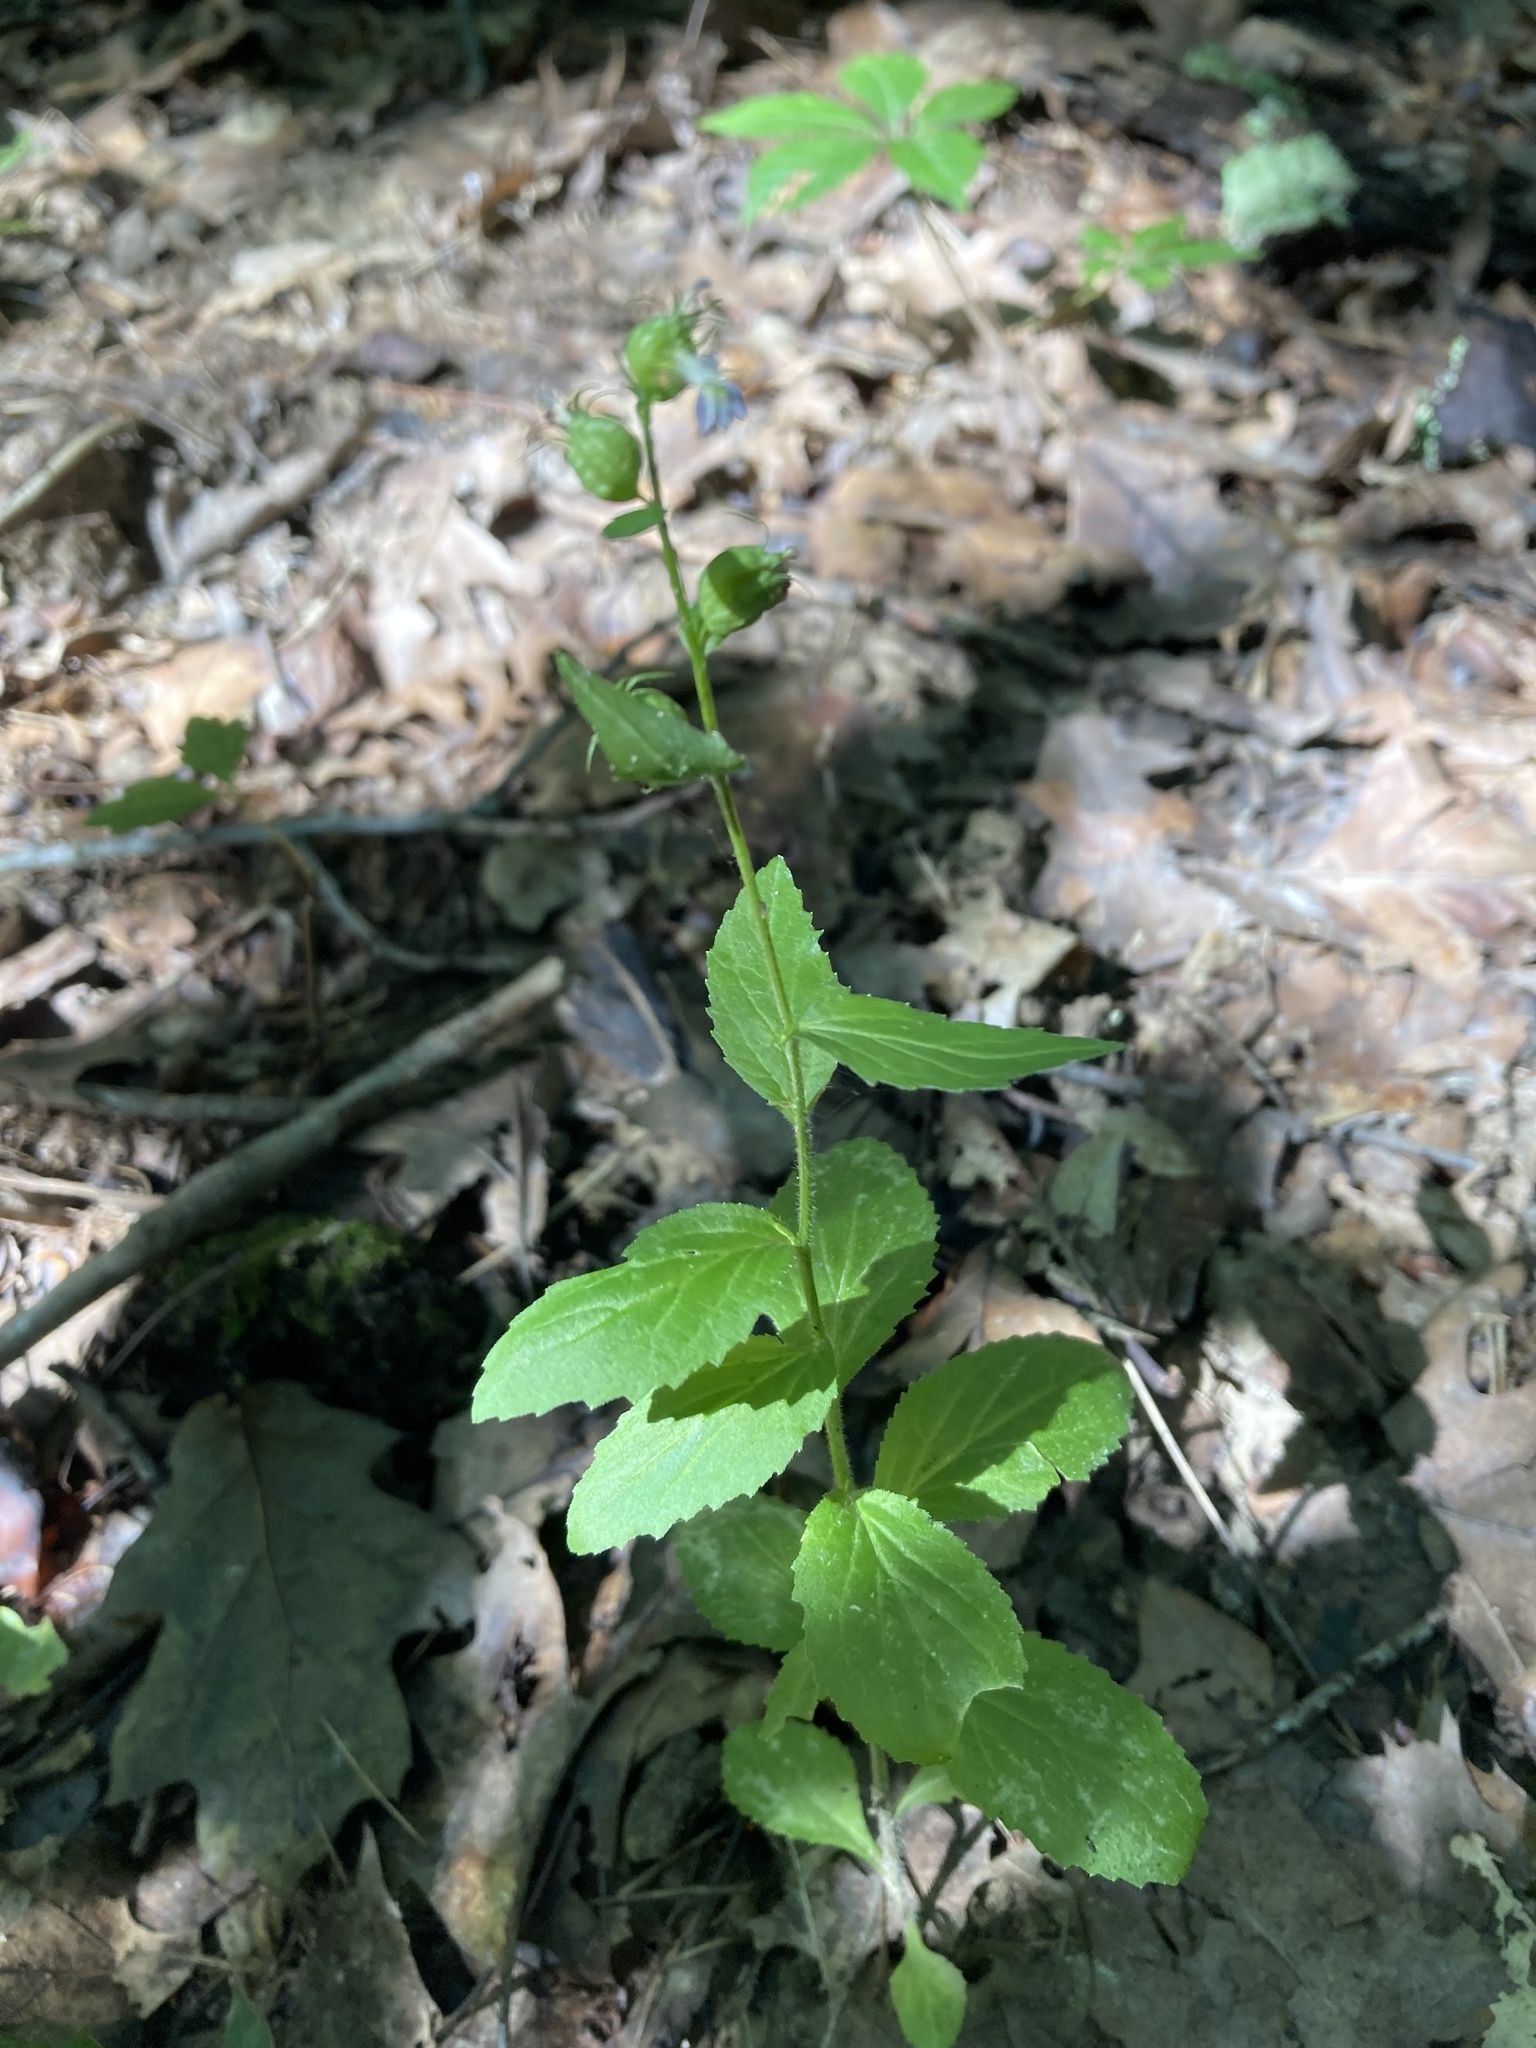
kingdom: Plantae
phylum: Tracheophyta
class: Magnoliopsida
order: Asterales
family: Campanulaceae
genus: Lobelia
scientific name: Lobelia inflata
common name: Indian tobacco
